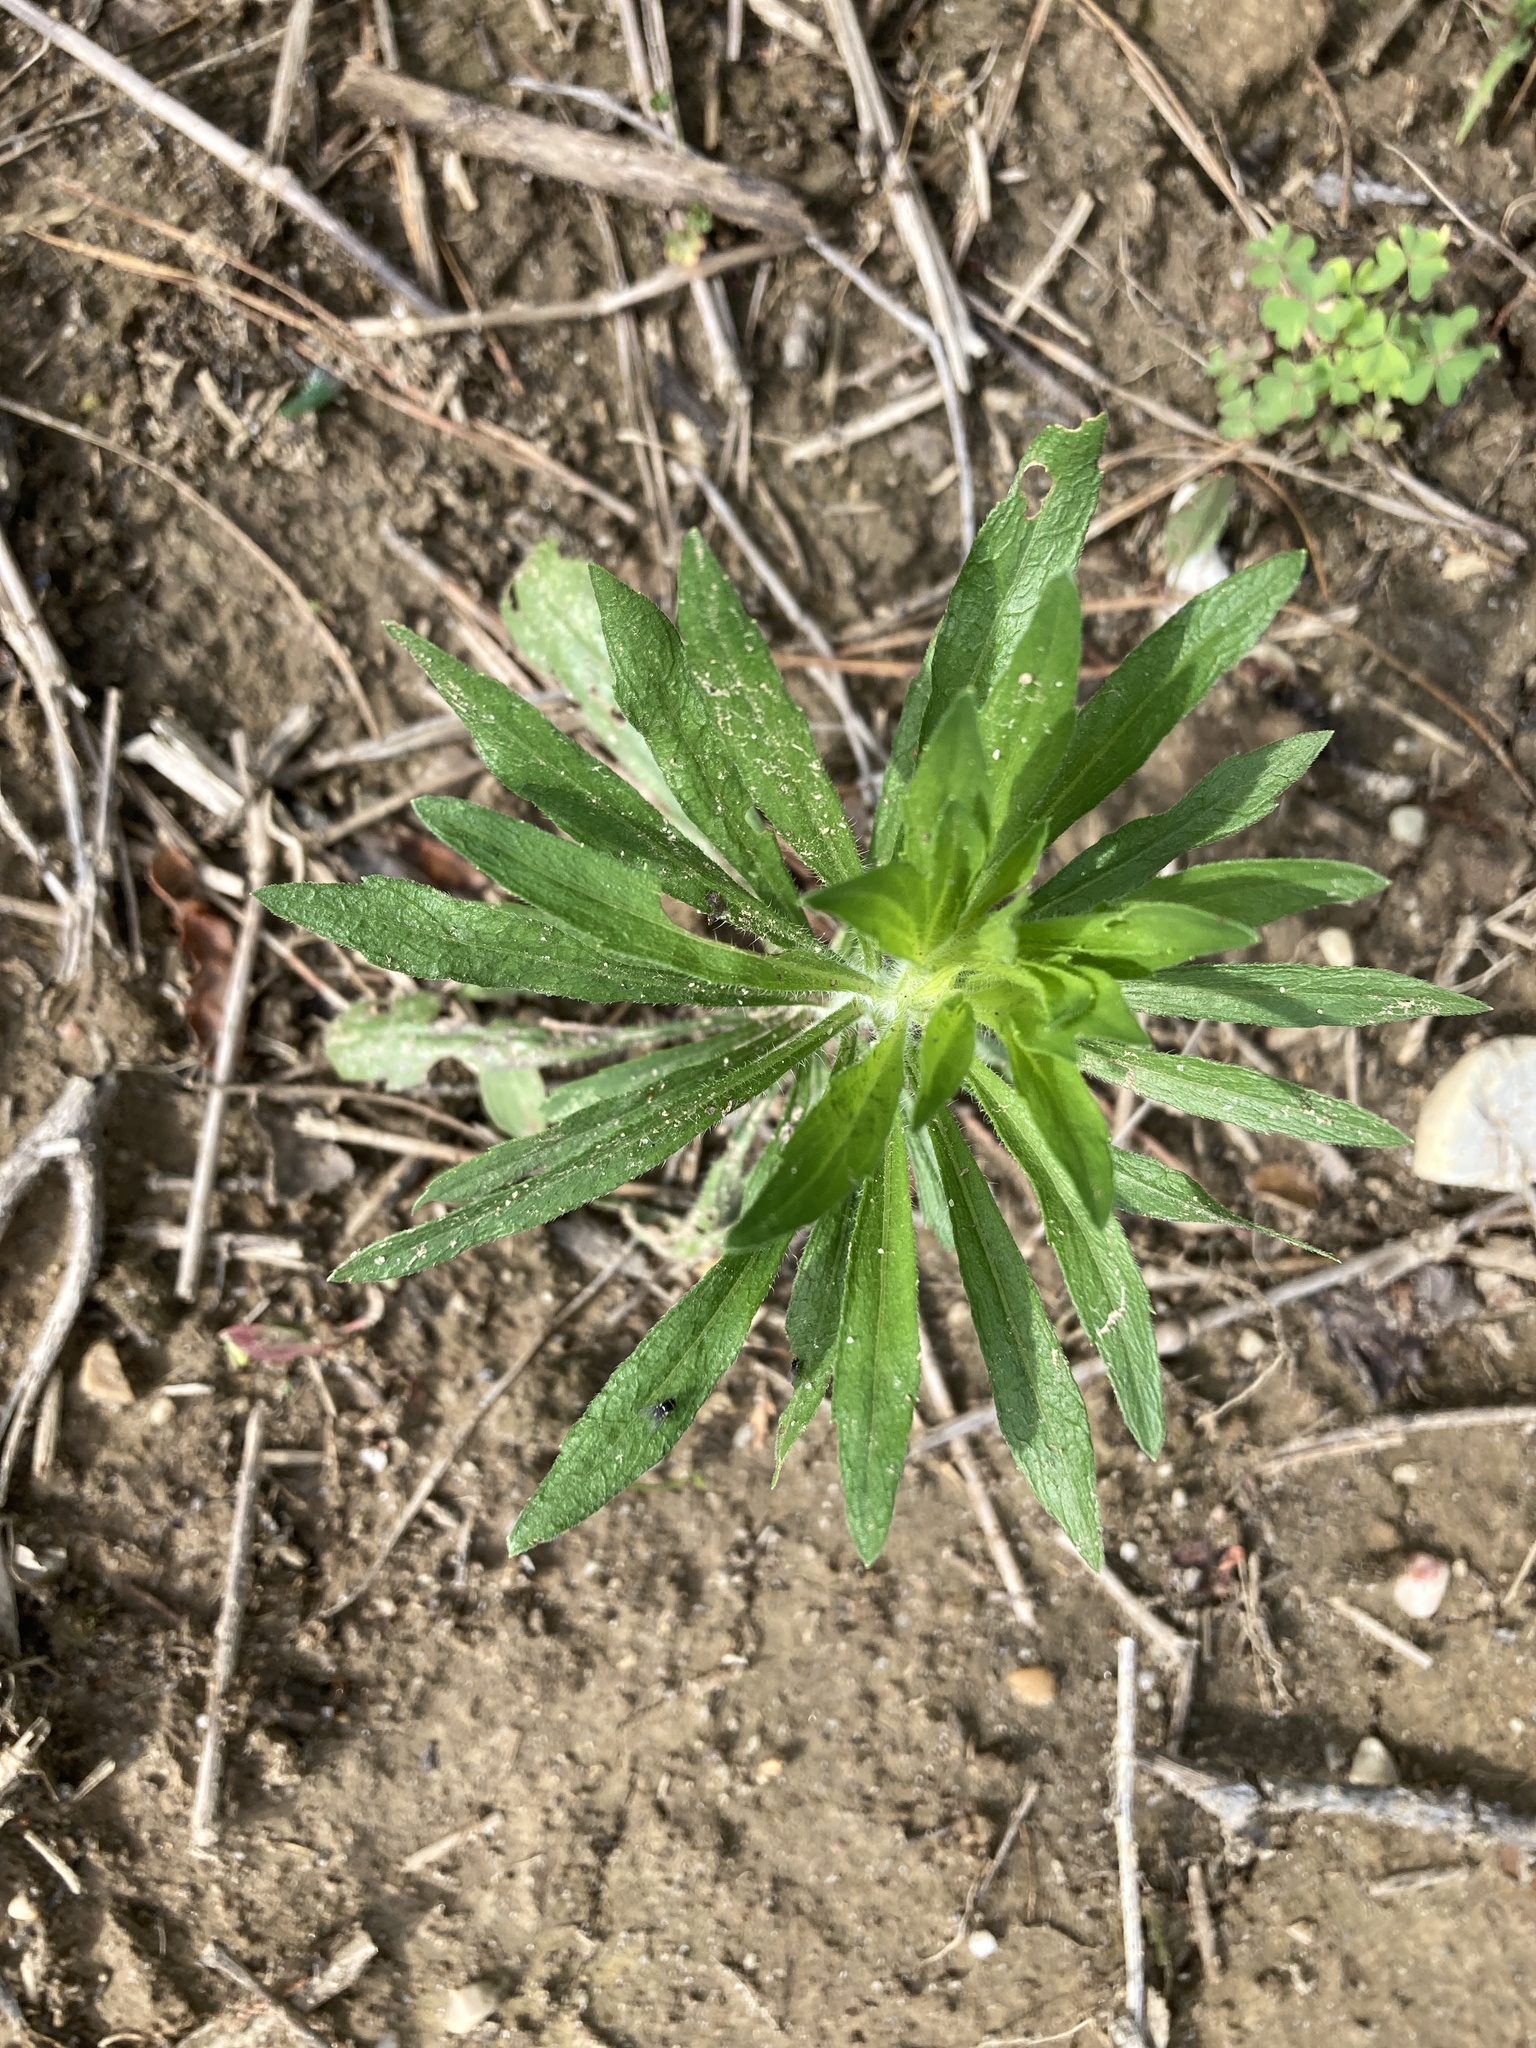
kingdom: Plantae
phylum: Tracheophyta
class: Magnoliopsida
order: Asterales
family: Asteraceae
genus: Erigeron
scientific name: Erigeron canadensis
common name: Canadian fleabane
